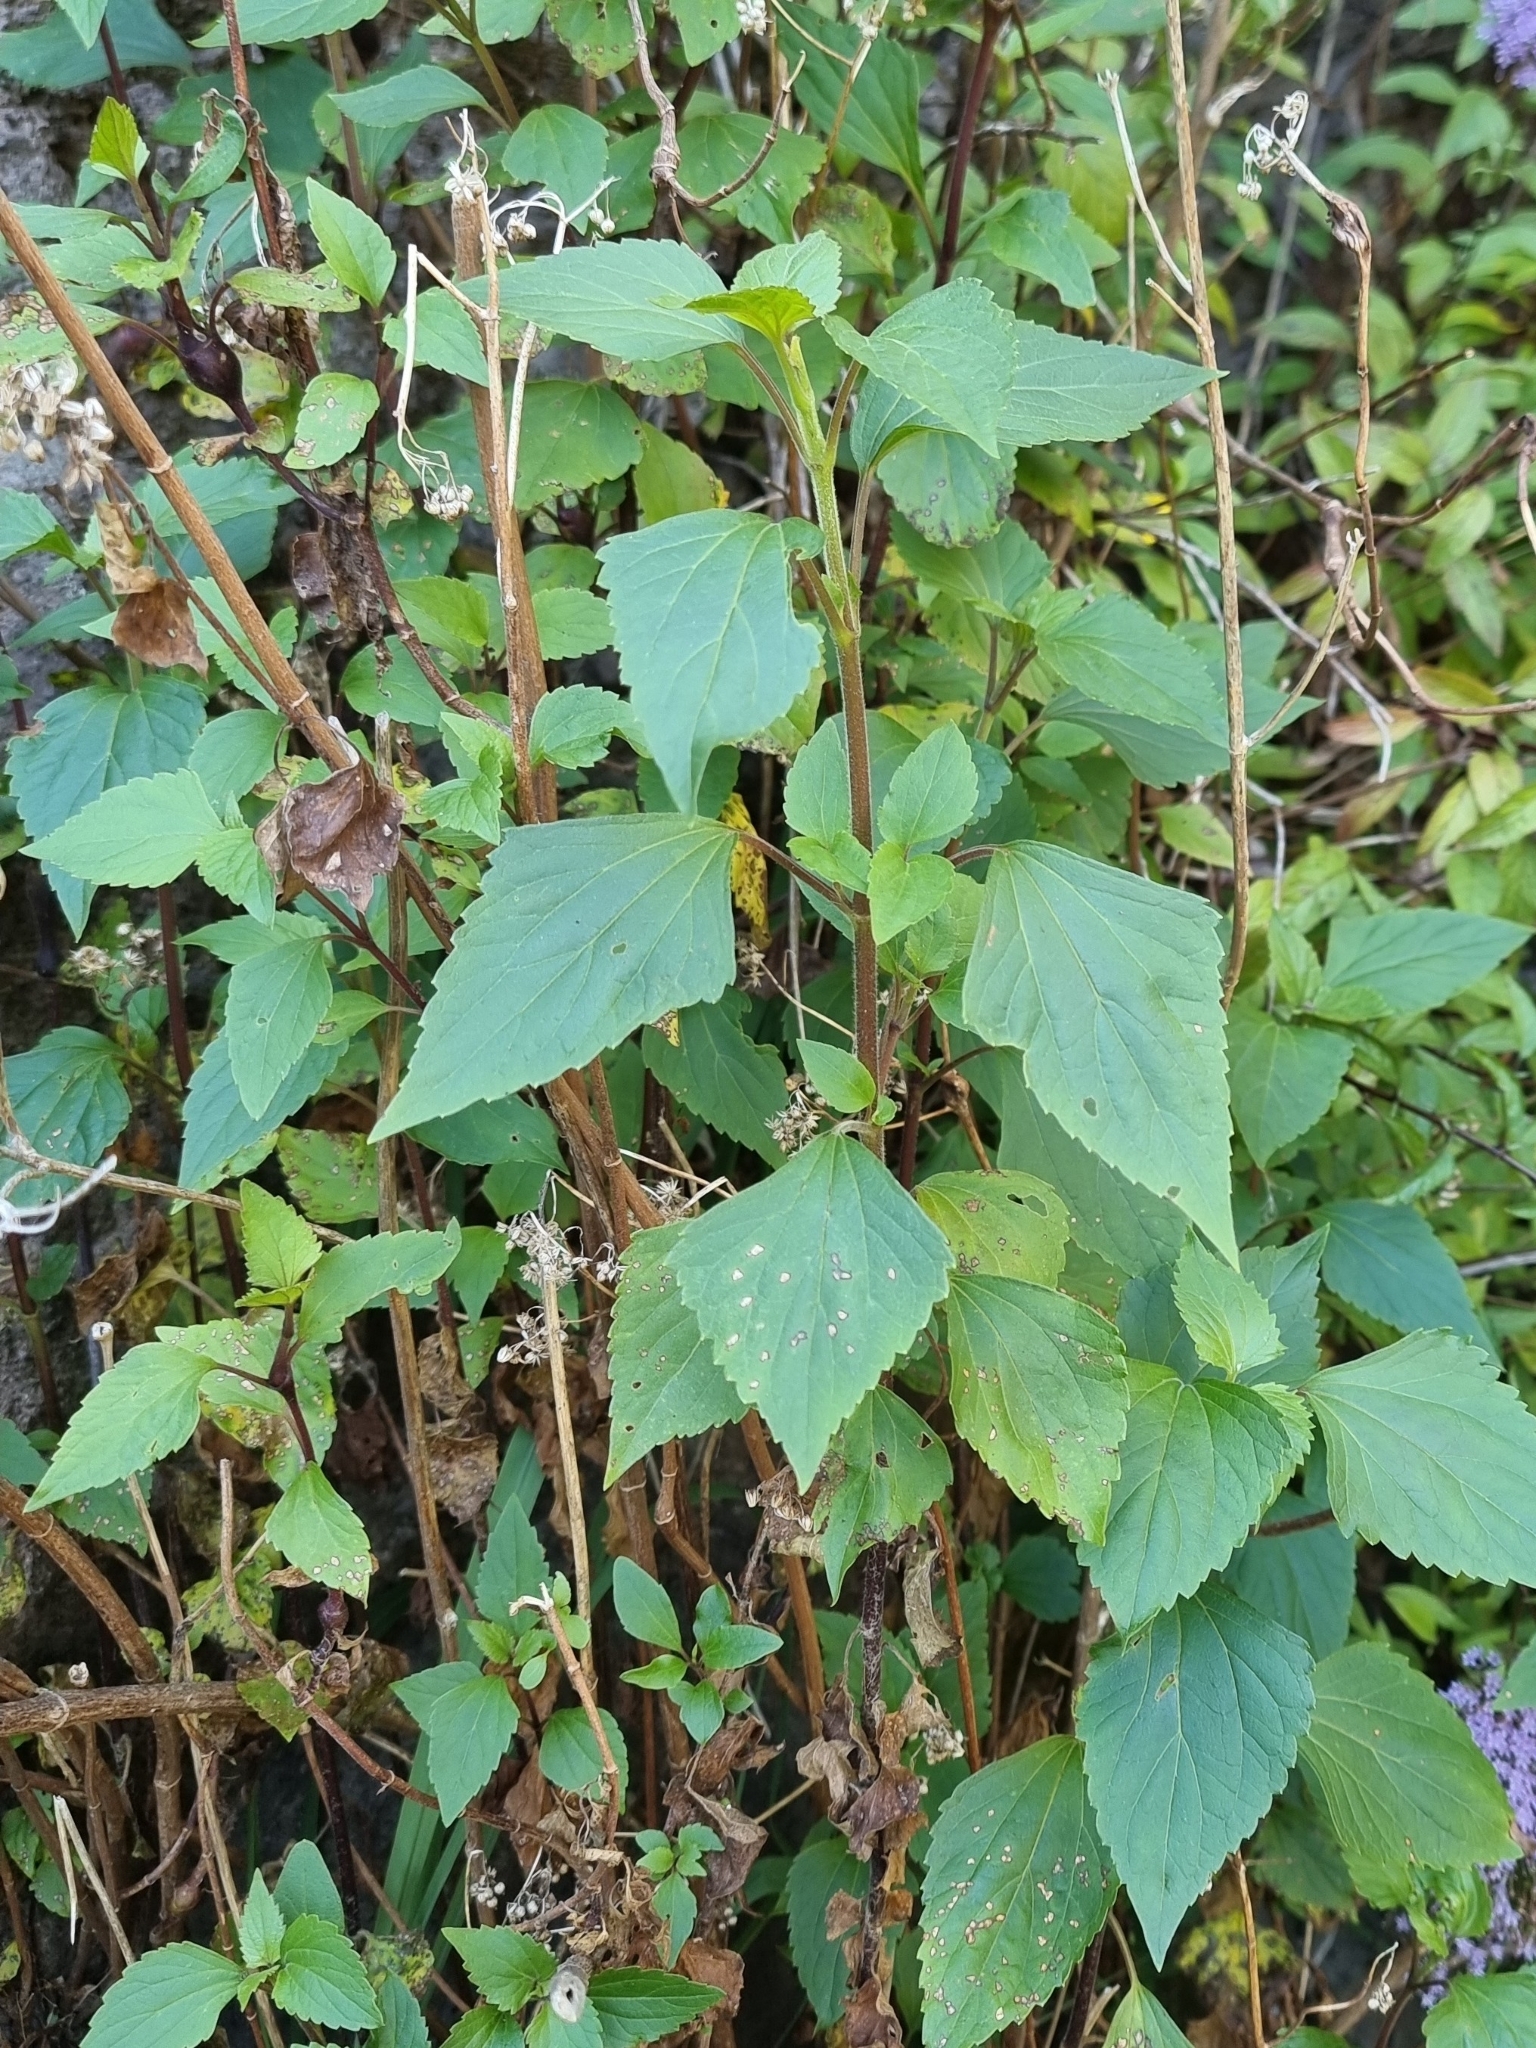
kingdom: Plantae
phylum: Tracheophyta
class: Magnoliopsida
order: Asterales
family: Asteraceae
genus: Ageratina
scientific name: Ageratina adenophora
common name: Sticky snakeroot
